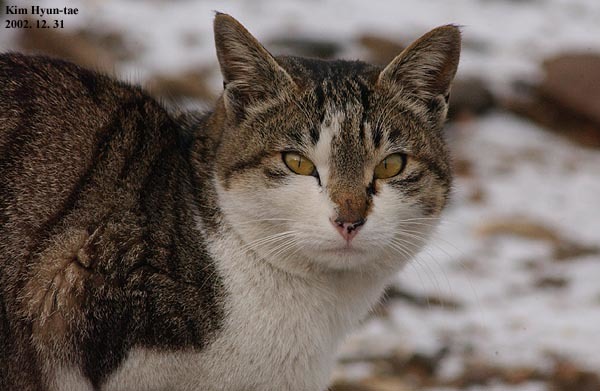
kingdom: Animalia
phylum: Chordata
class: Mammalia
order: Carnivora
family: Felidae
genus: Felis
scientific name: Felis catus
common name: Domestic cat
